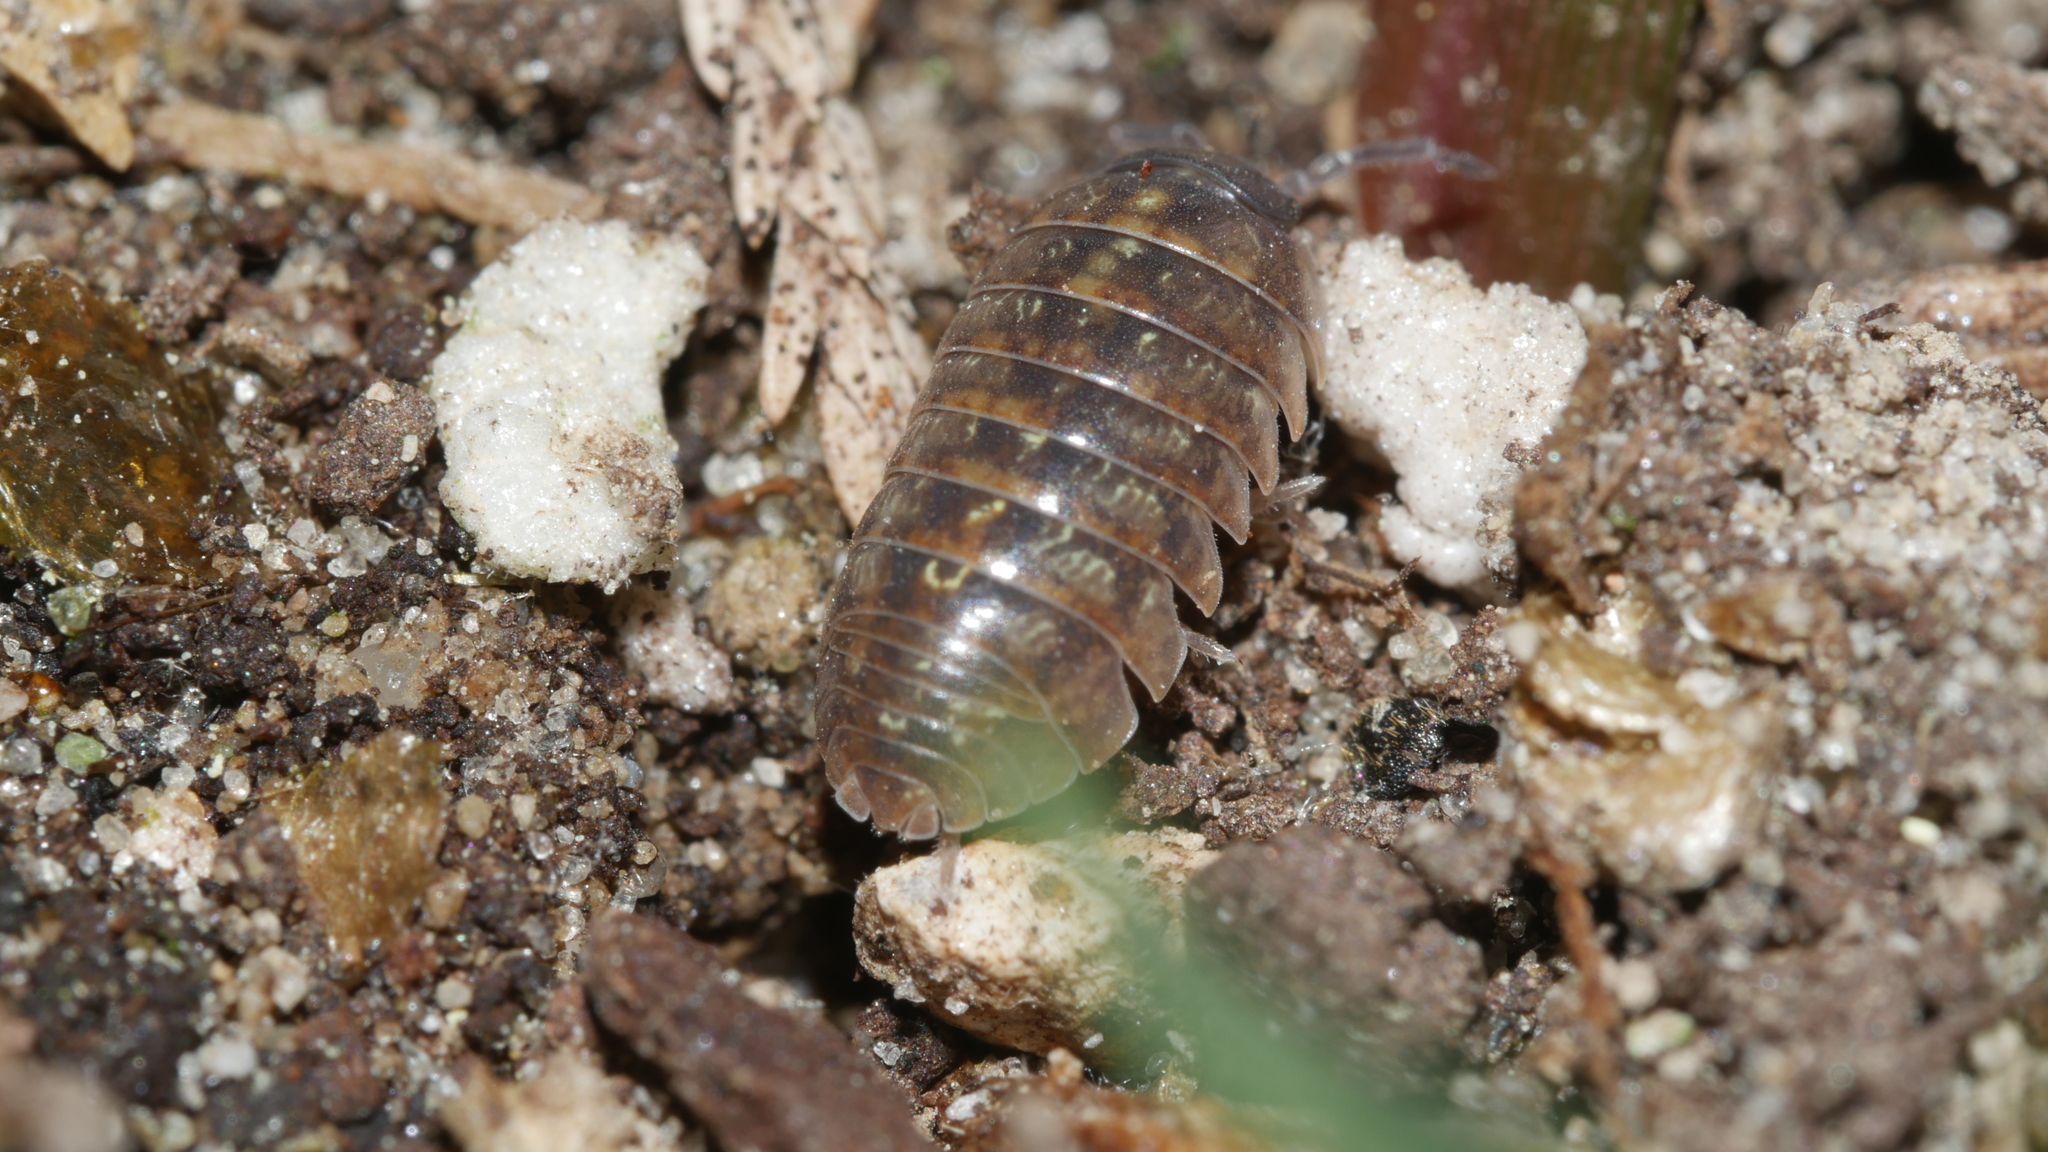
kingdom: Animalia
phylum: Arthropoda
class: Malacostraca
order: Isopoda
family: Armadillidiidae
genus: Armadillidium
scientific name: Armadillidium vulgare
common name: Common pill woodlouse
